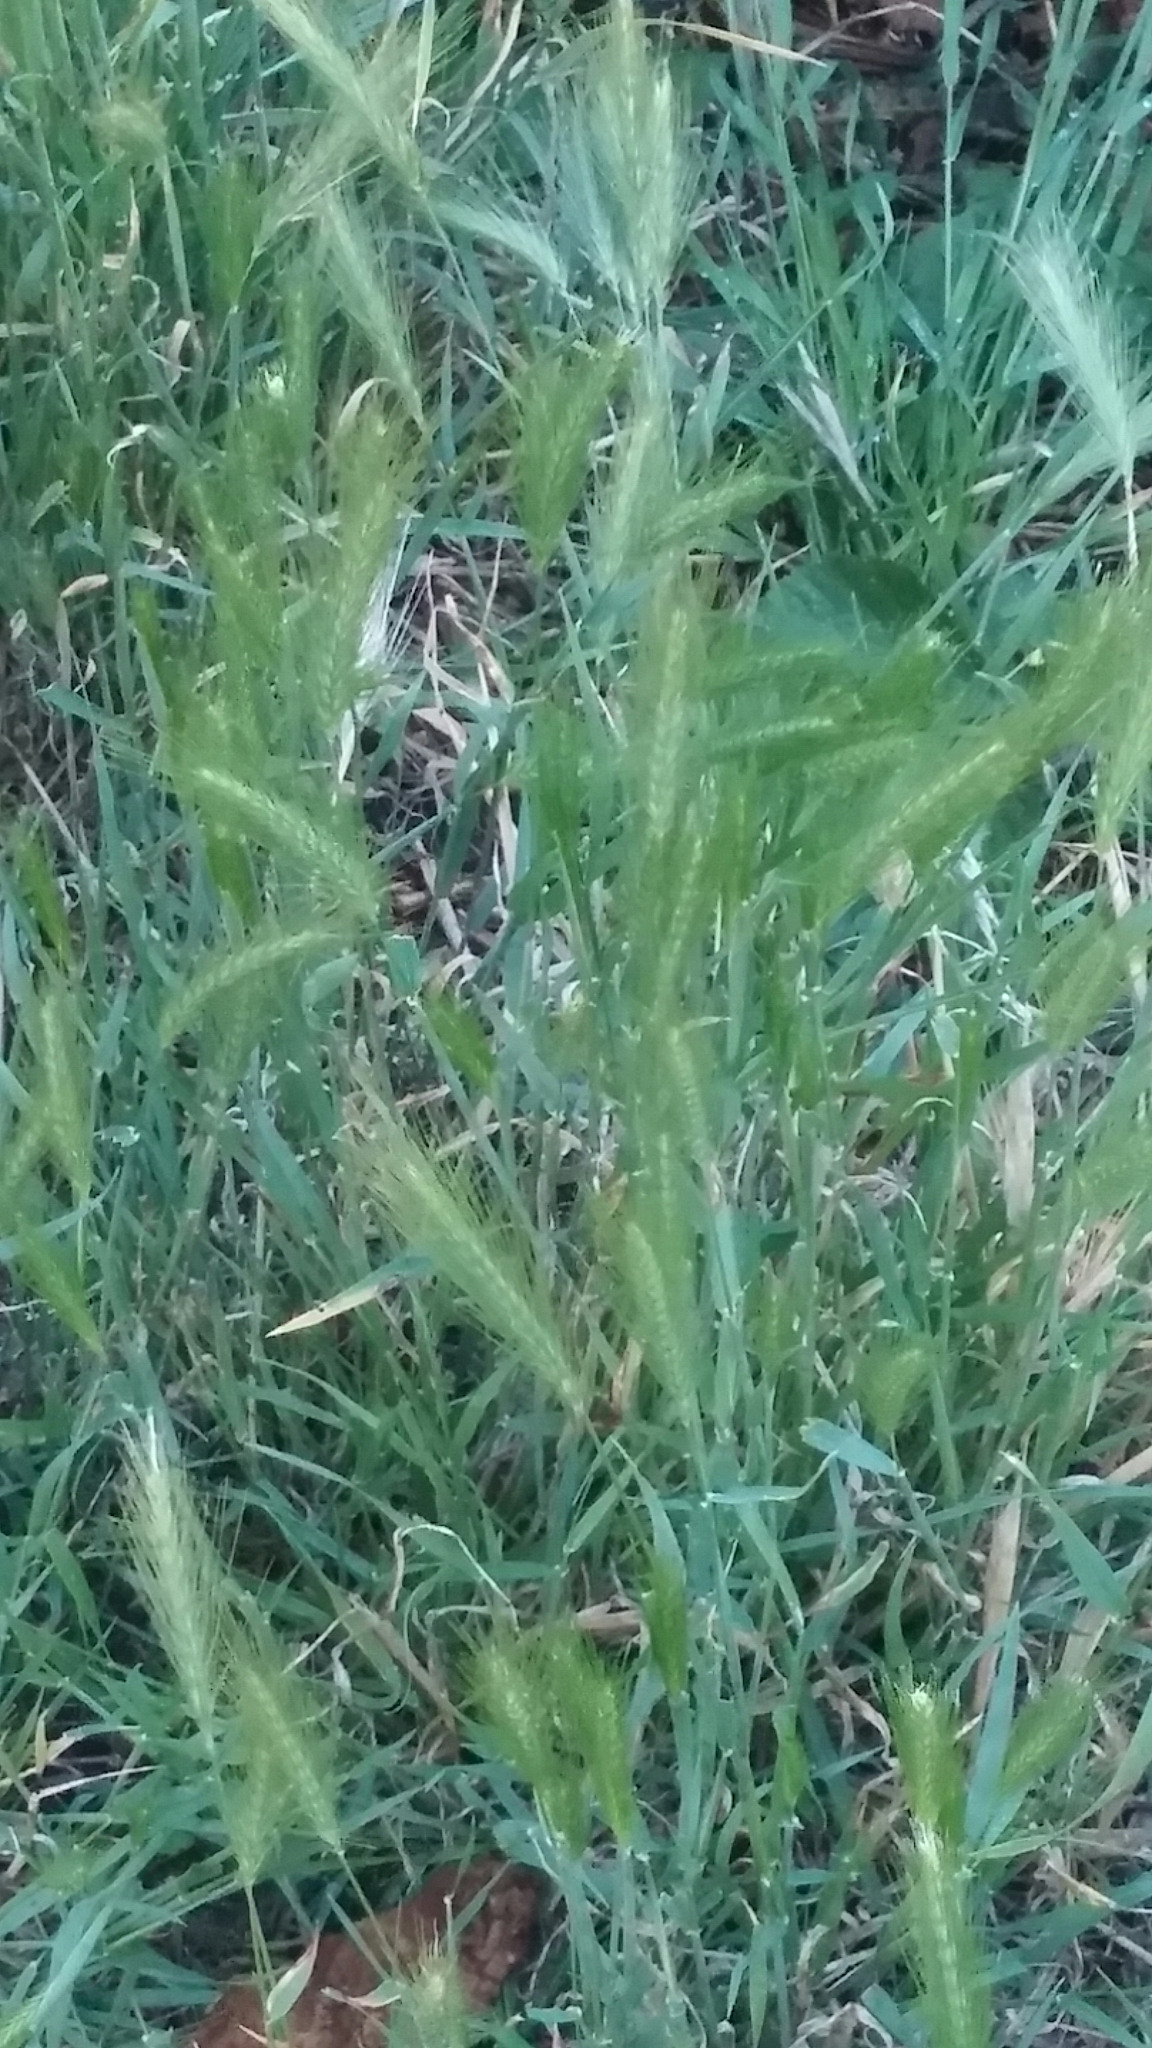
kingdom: Plantae
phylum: Tracheophyta
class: Liliopsida
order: Poales
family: Poaceae
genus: Hordeum
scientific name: Hordeum jubatum
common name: Foxtail barley
